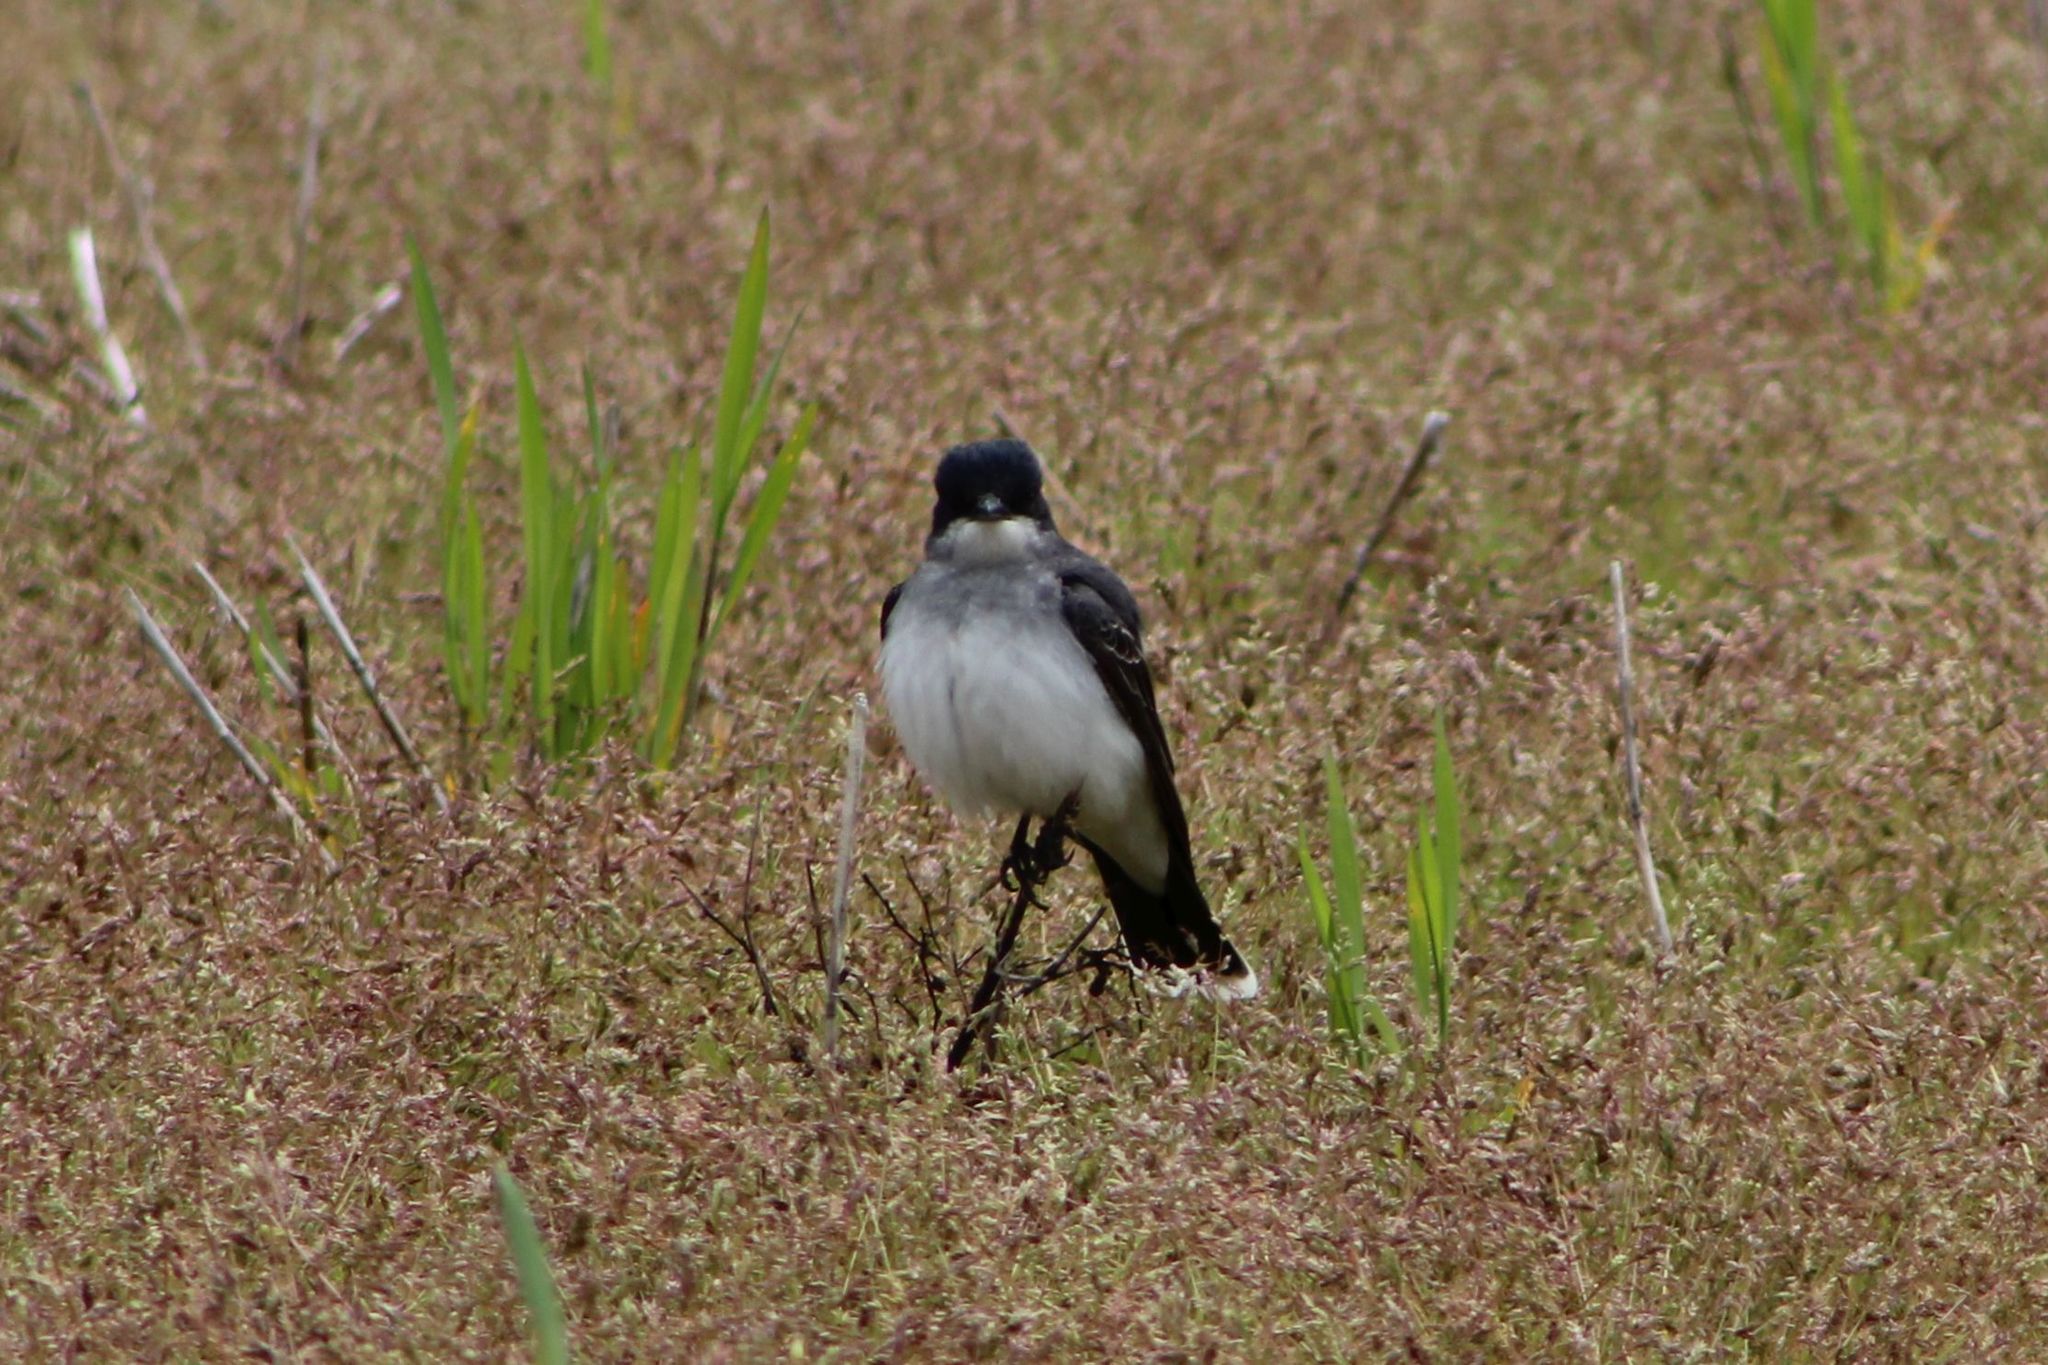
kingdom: Animalia
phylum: Chordata
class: Aves
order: Passeriformes
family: Tyrannidae
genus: Tyrannus
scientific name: Tyrannus tyrannus
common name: Eastern kingbird
